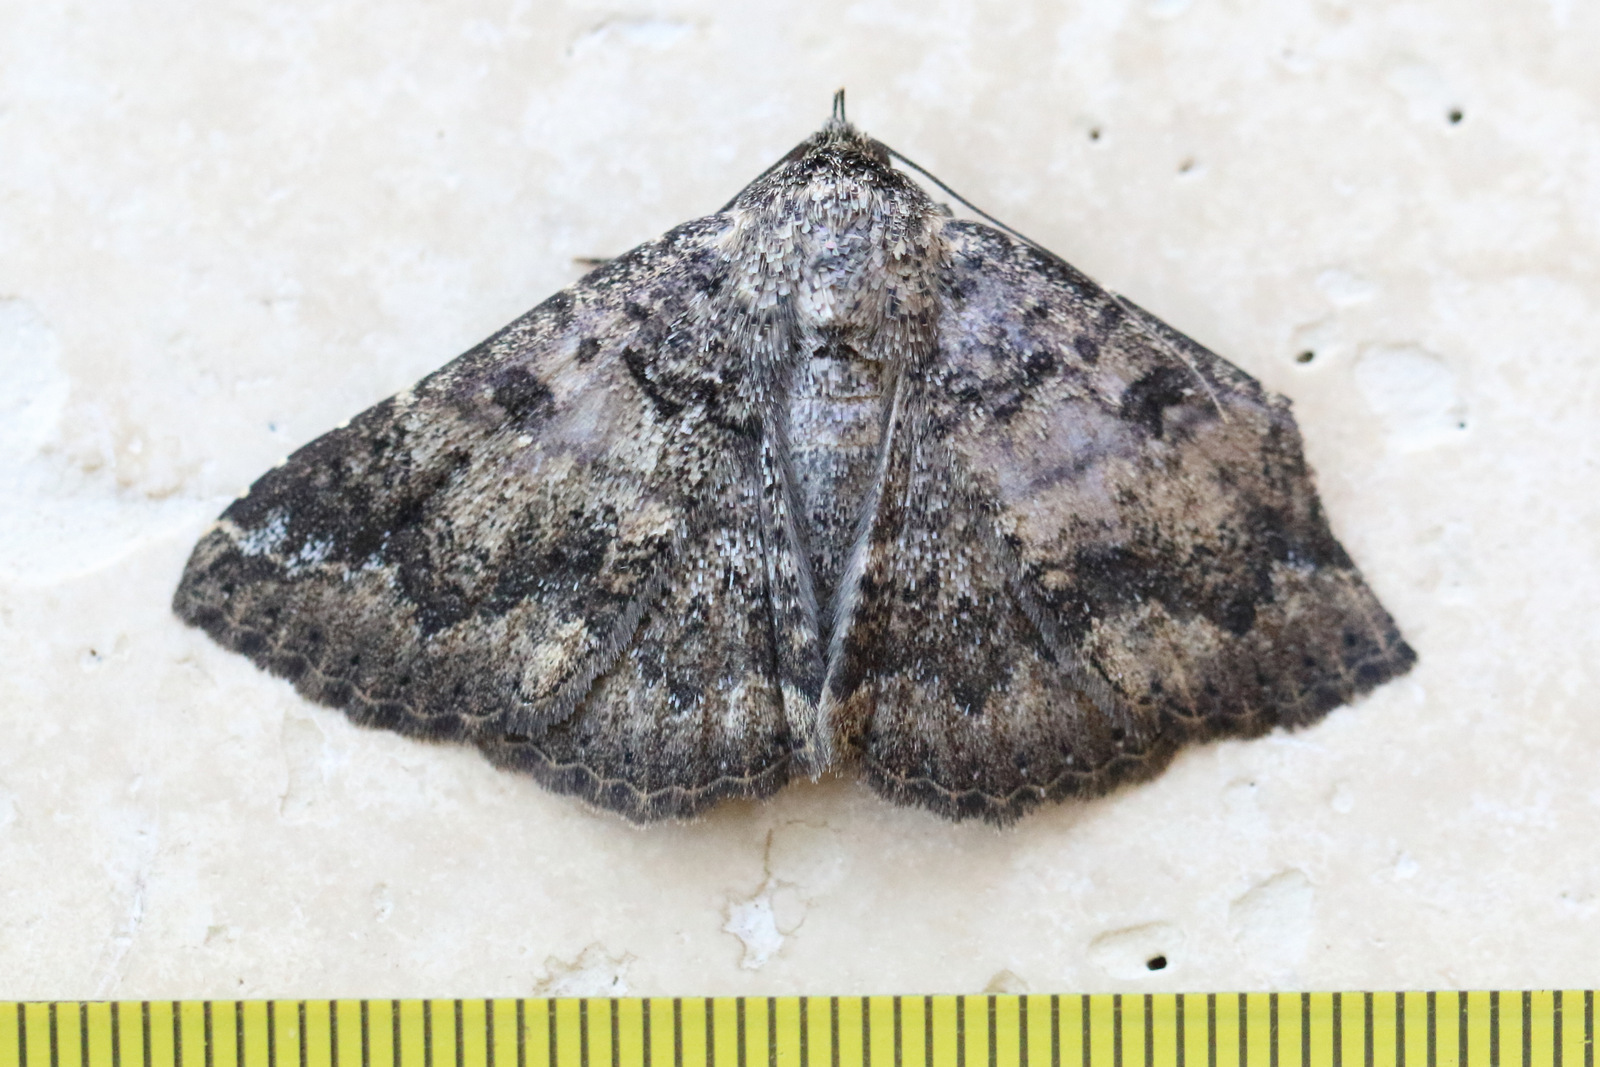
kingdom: Animalia
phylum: Arthropoda
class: Insecta
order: Lepidoptera
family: Erebidae
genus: Ericeia
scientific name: Ericeia plaesiodes
